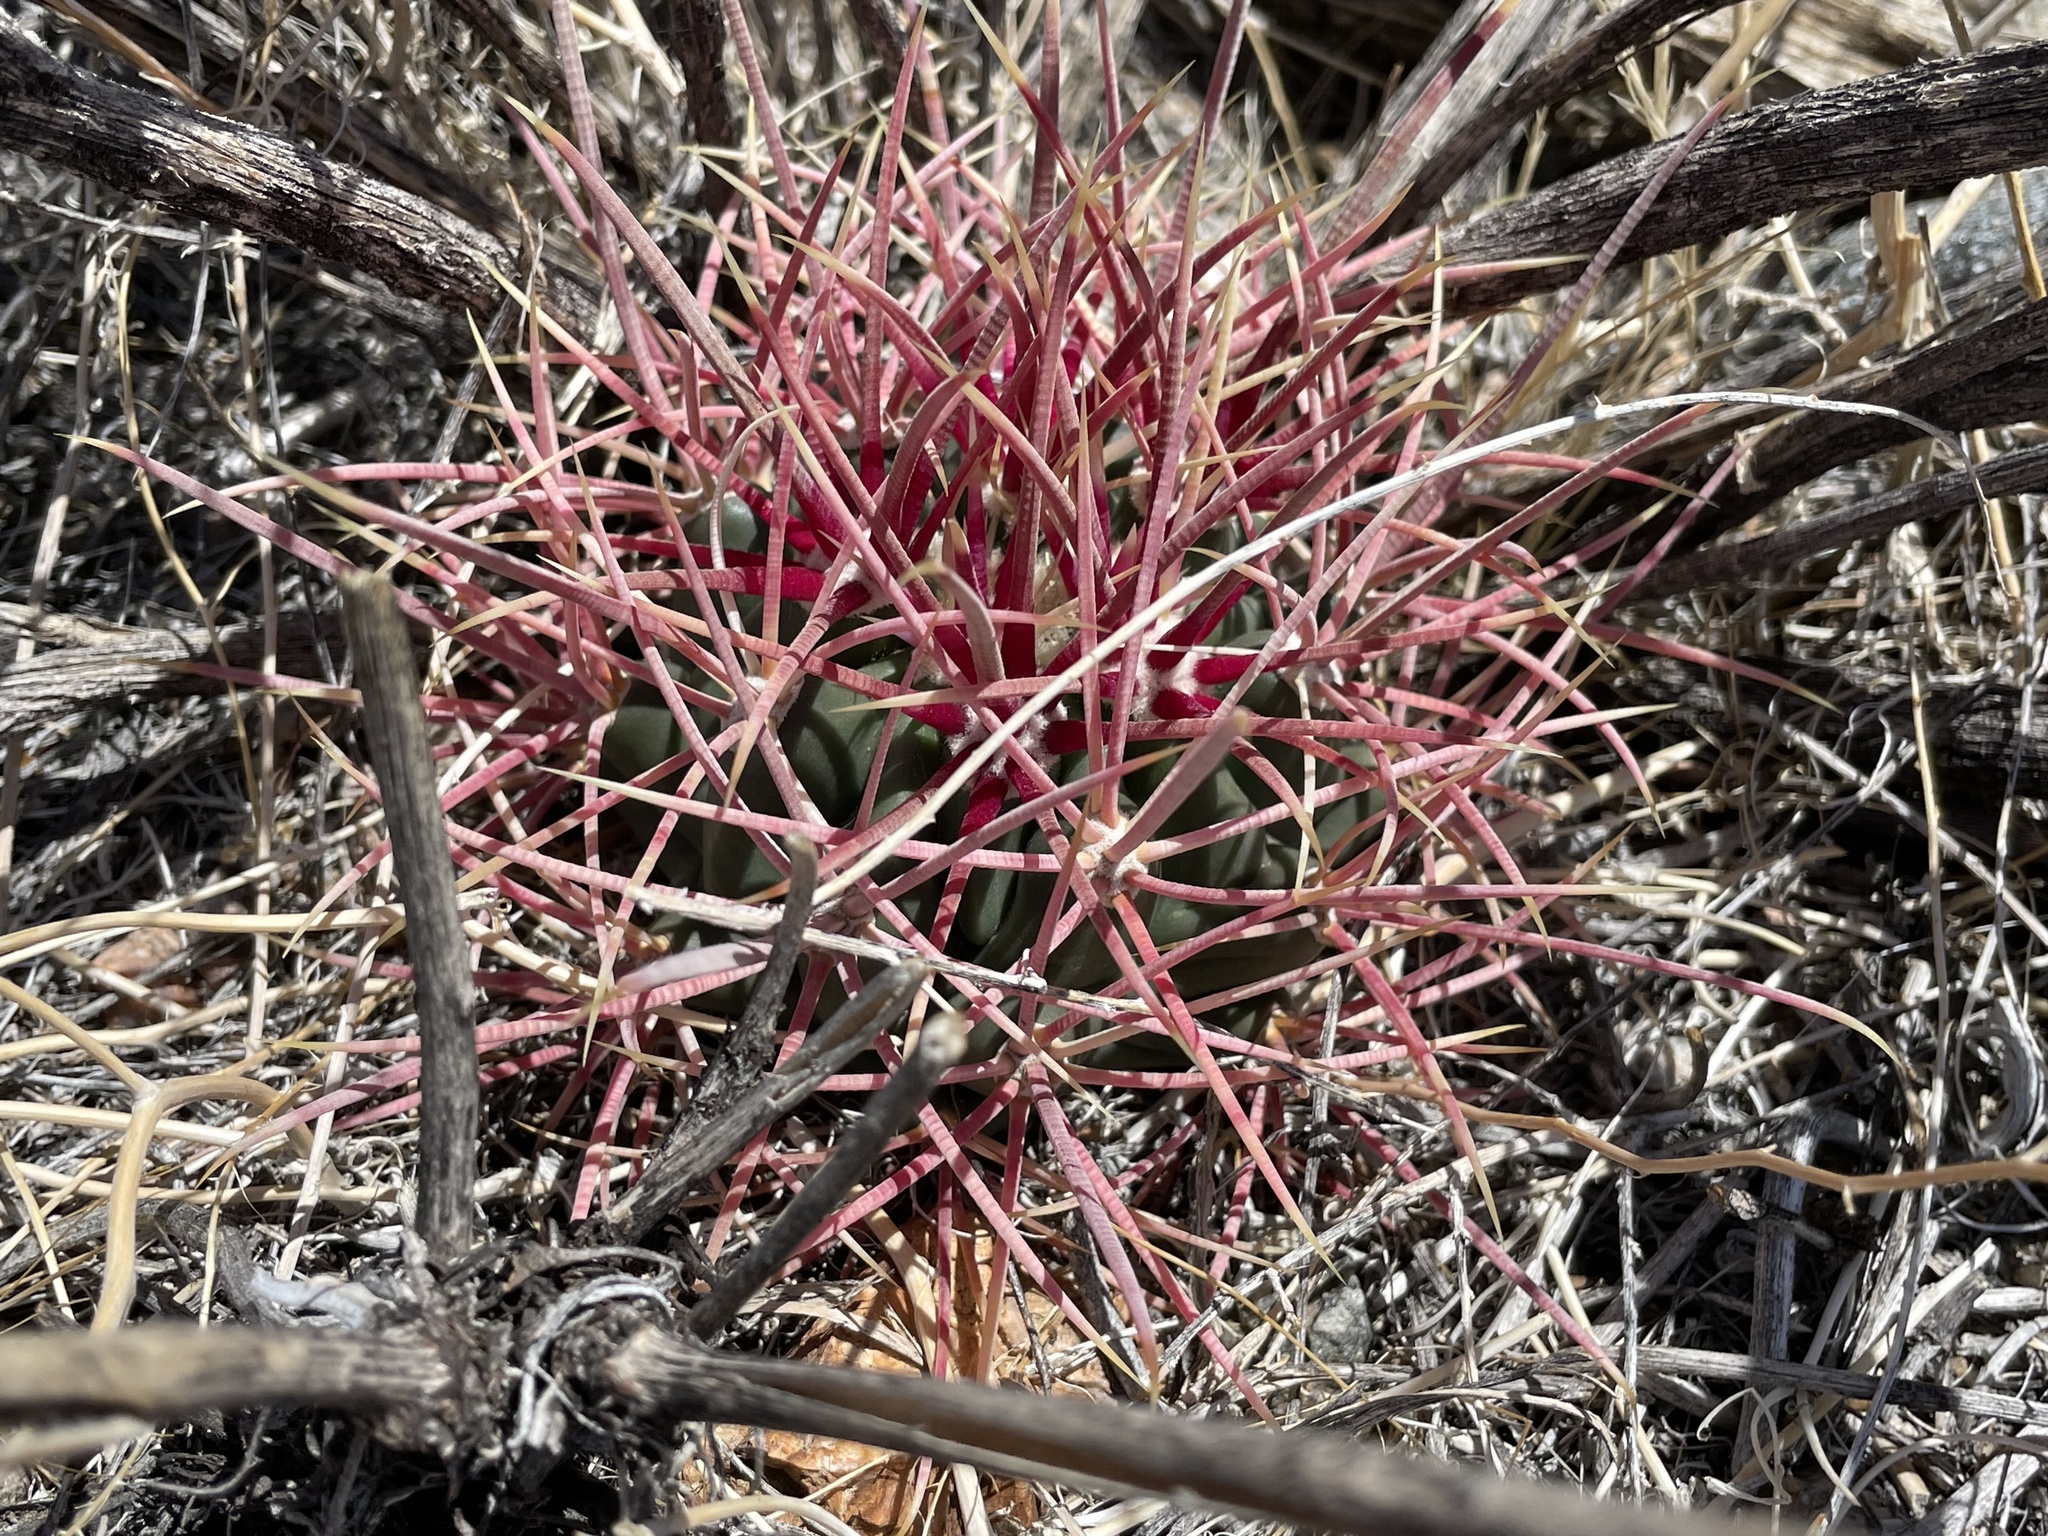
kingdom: Plantae
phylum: Tracheophyta
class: Magnoliopsida
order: Caryophyllales
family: Cactaceae
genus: Echinocactus
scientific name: Echinocactus polycephalus
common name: Cottontop cactus
